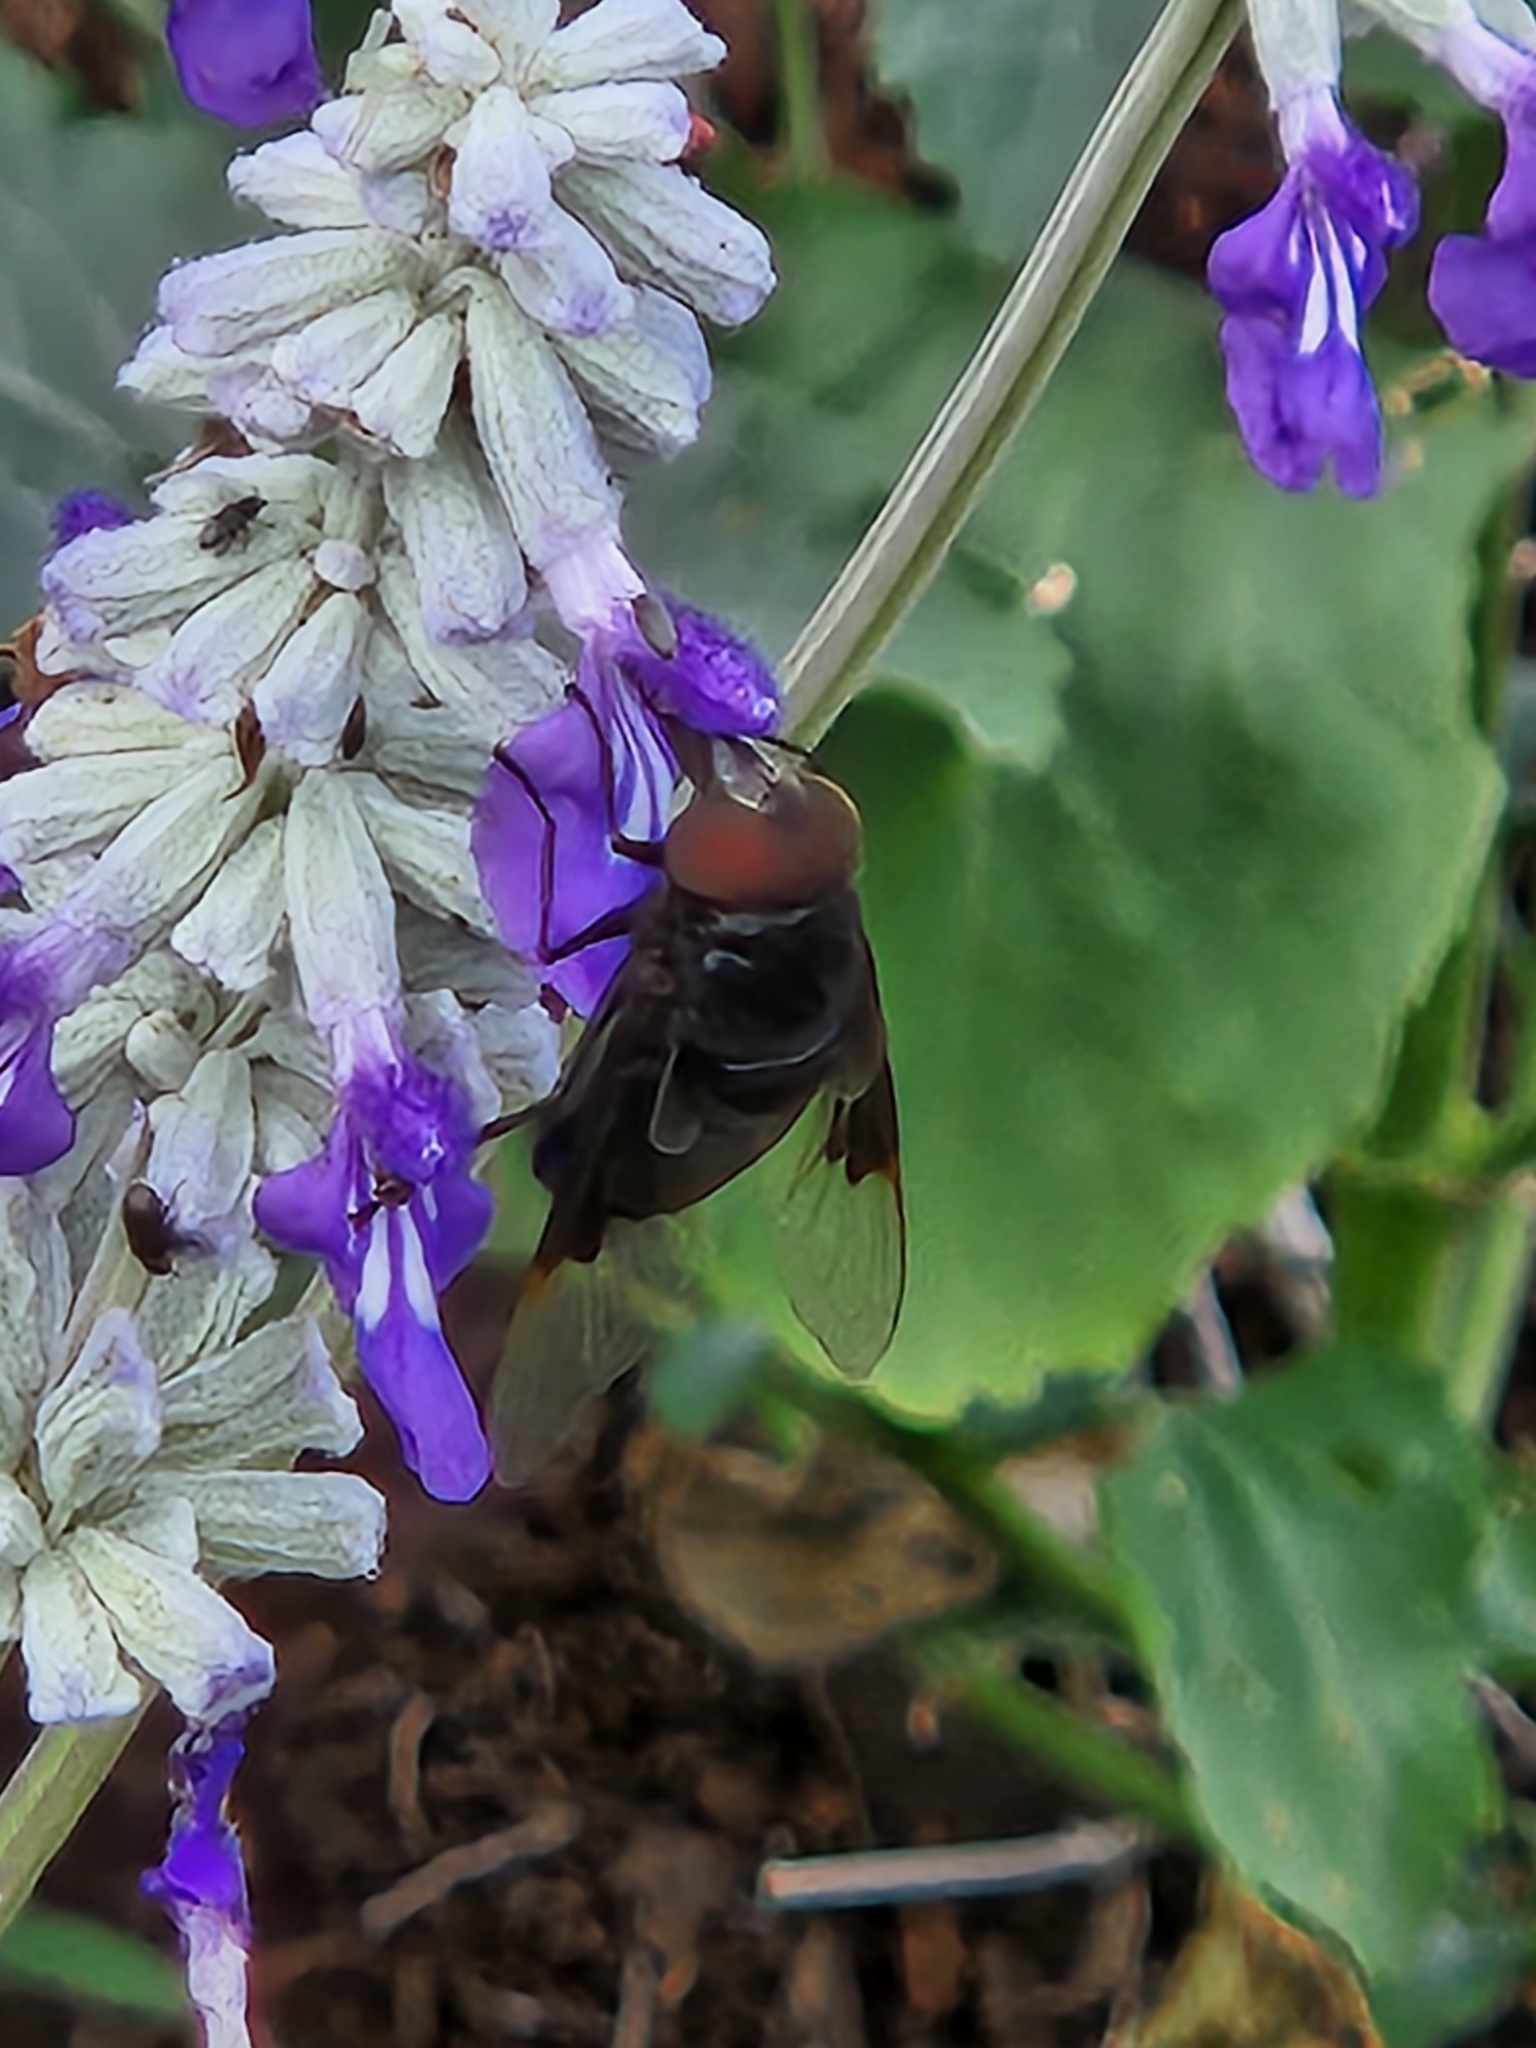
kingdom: Animalia
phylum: Arthropoda
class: Insecta
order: Diptera
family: Syrphidae
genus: Copestylum
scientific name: Copestylum
